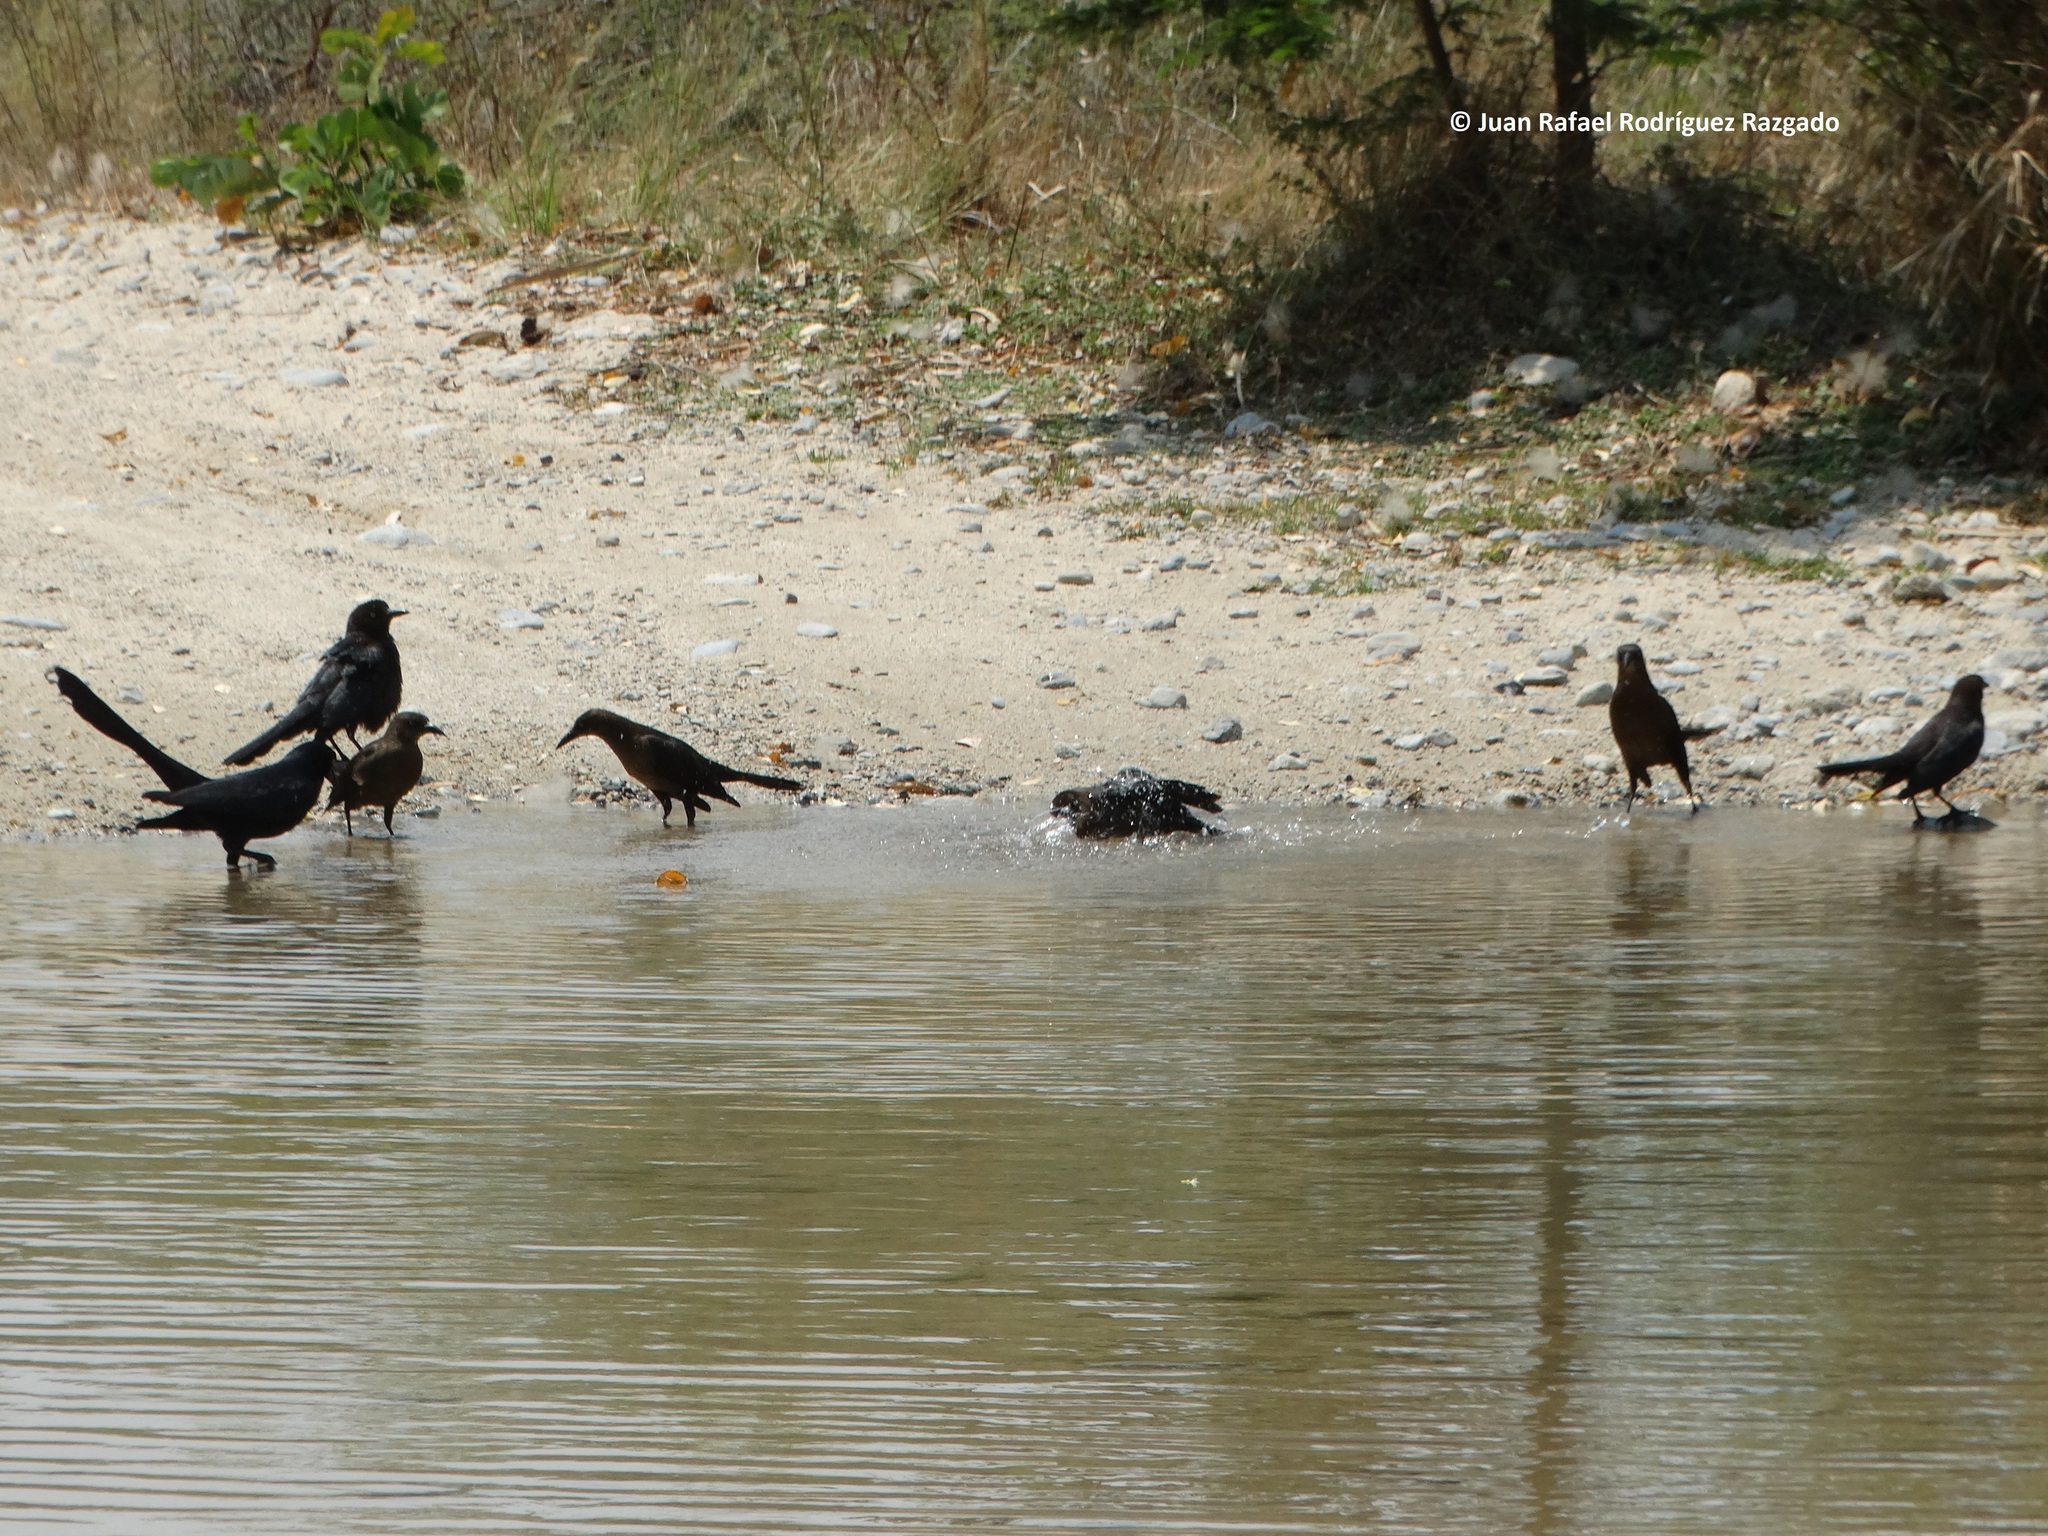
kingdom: Animalia
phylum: Chordata
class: Aves
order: Passeriformes
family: Icteridae
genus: Quiscalus
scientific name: Quiscalus mexicanus
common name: Great-tailed grackle
